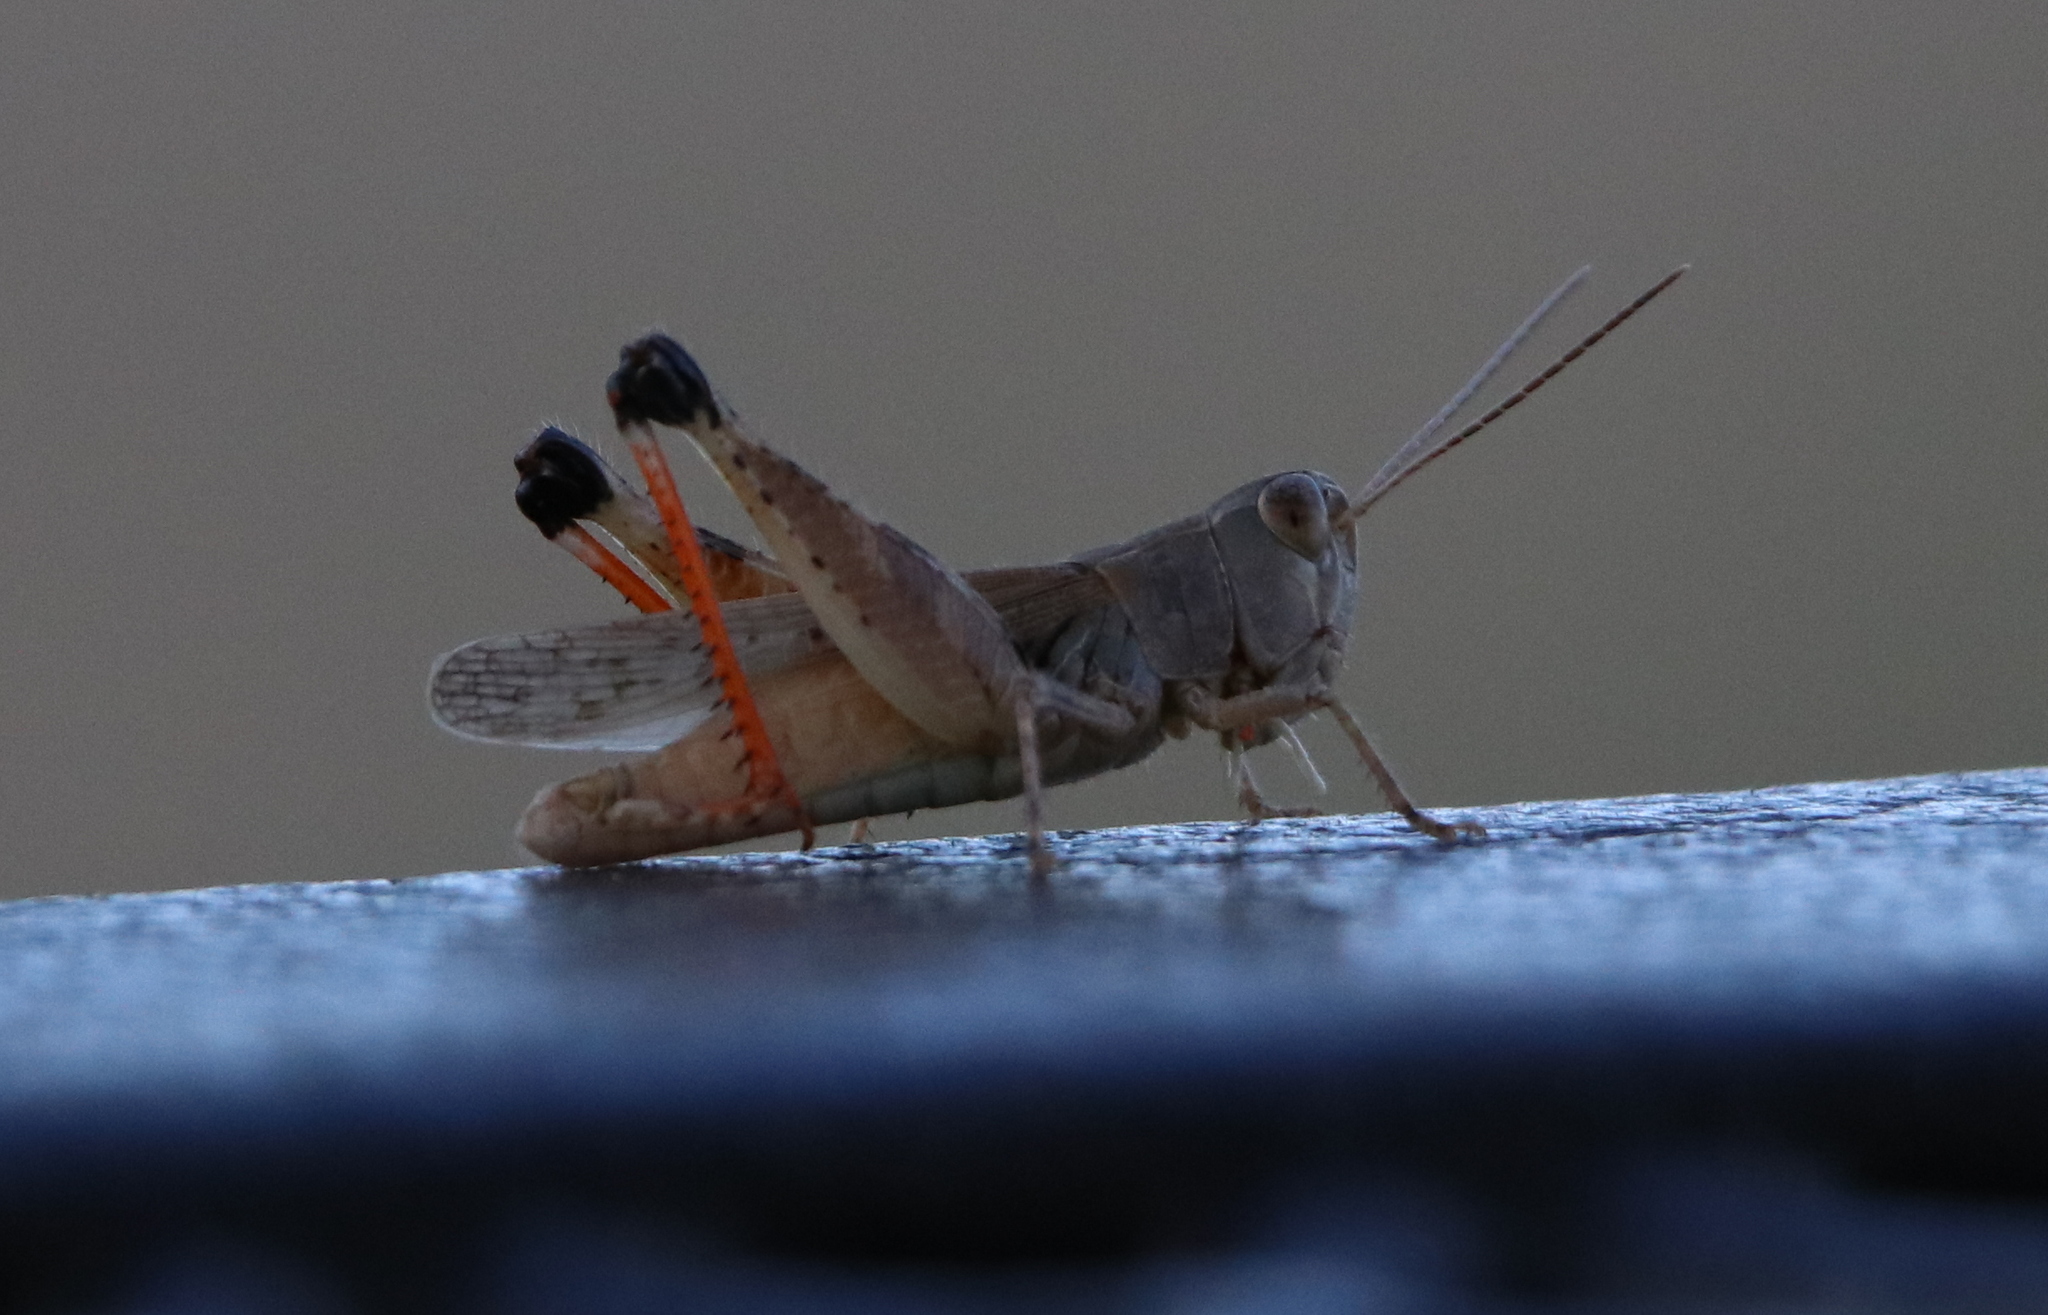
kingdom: Animalia
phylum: Arthropoda
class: Insecta
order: Orthoptera
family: Acrididae
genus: Ageneotettix
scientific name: Ageneotettix deorum
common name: White-whiskered grasshopper
